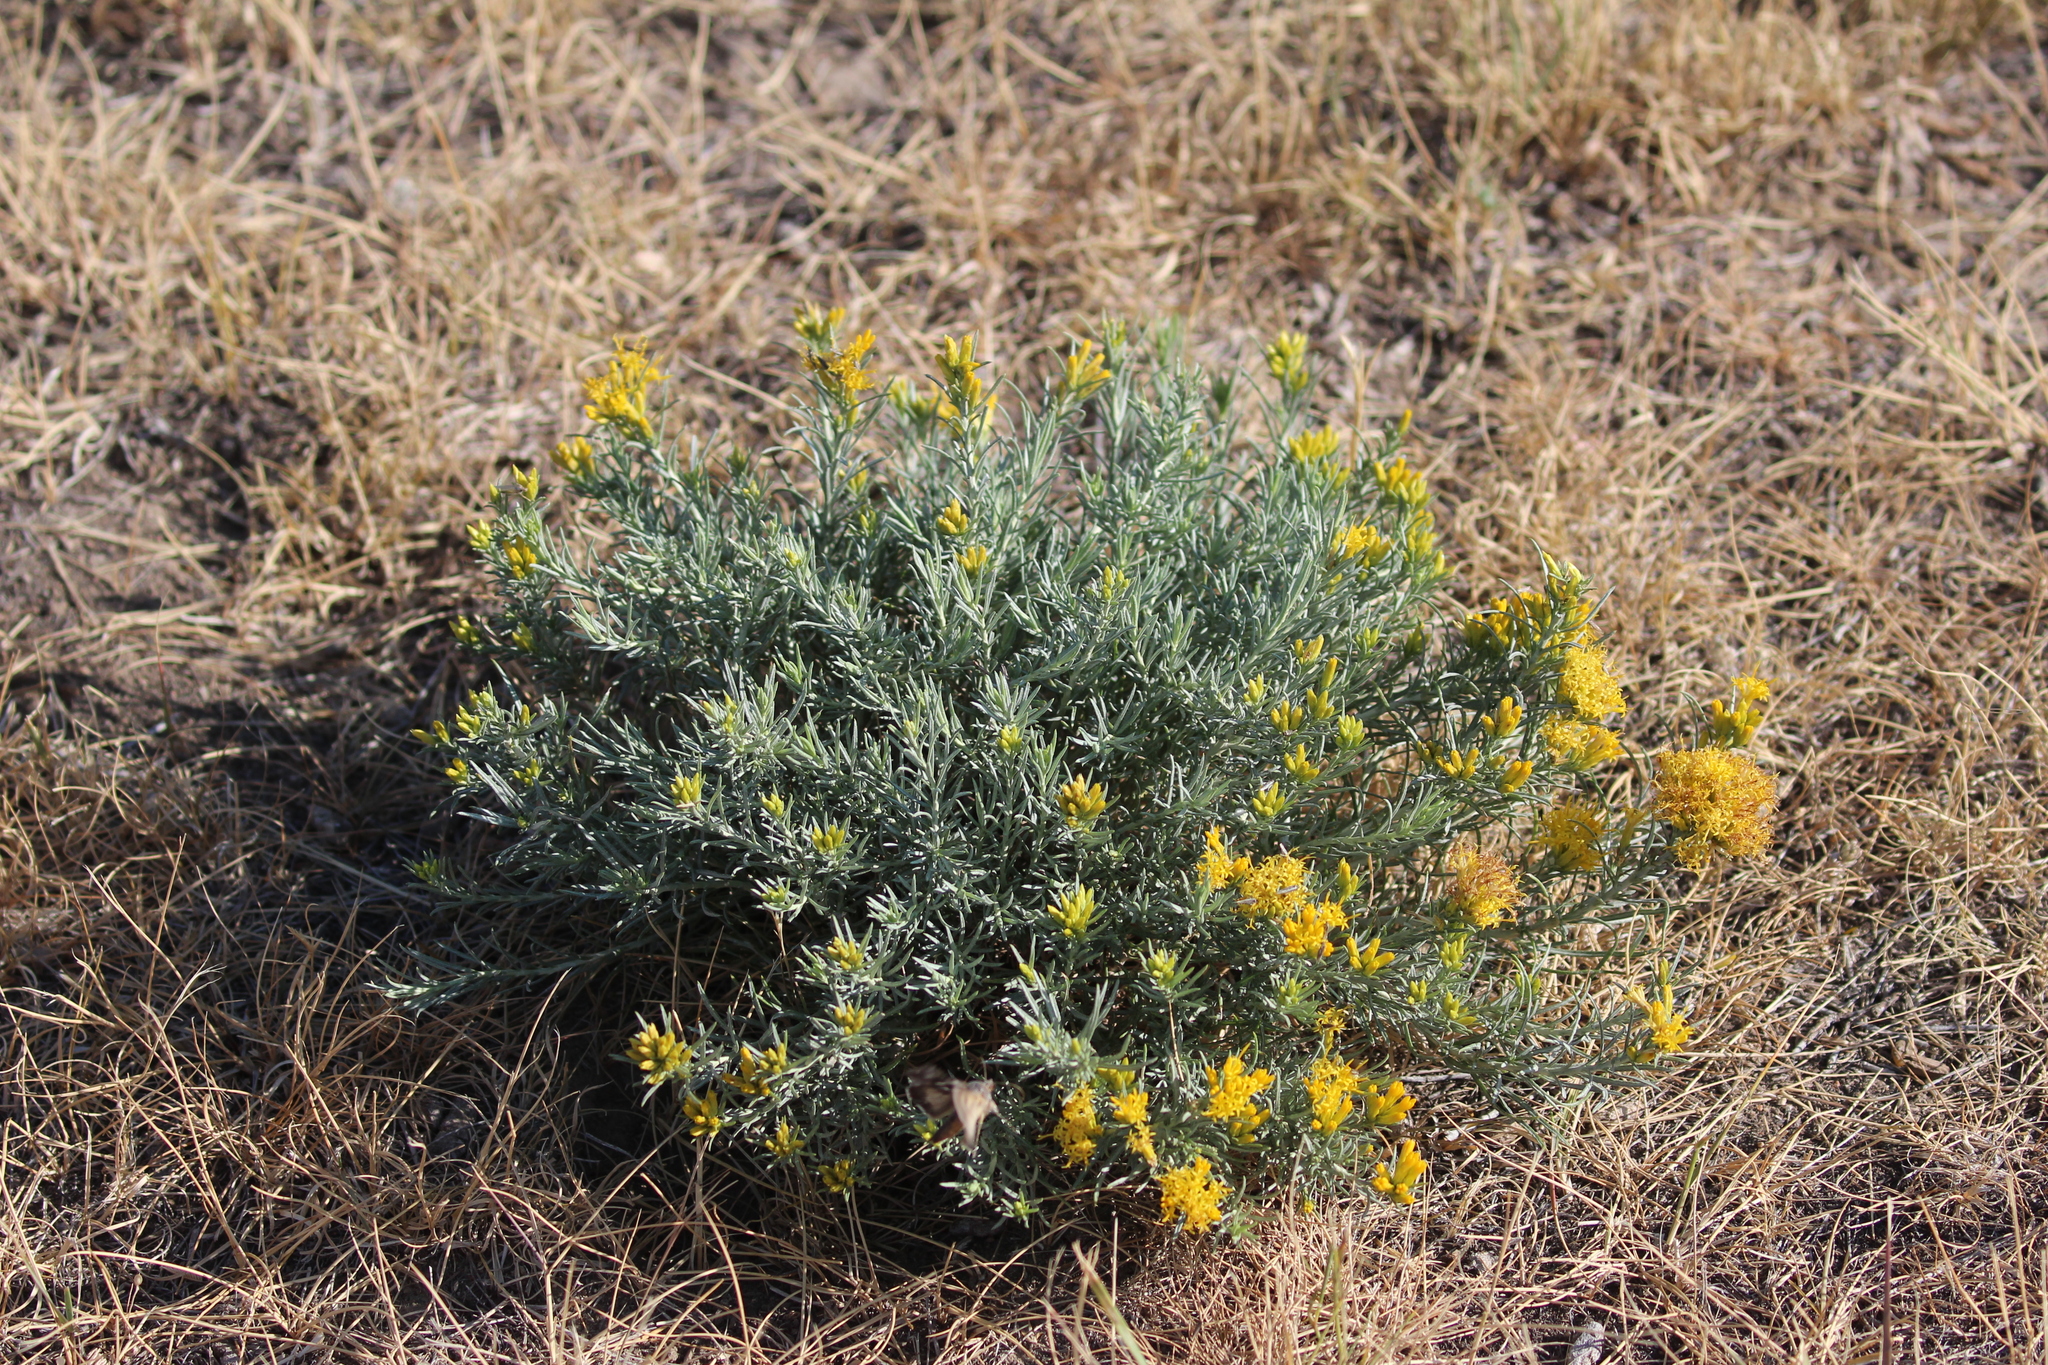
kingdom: Plantae
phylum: Tracheophyta
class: Magnoliopsida
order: Asterales
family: Asteraceae
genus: Ericameria
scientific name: Ericameria nauseosa
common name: Rubber rabbitbrush
